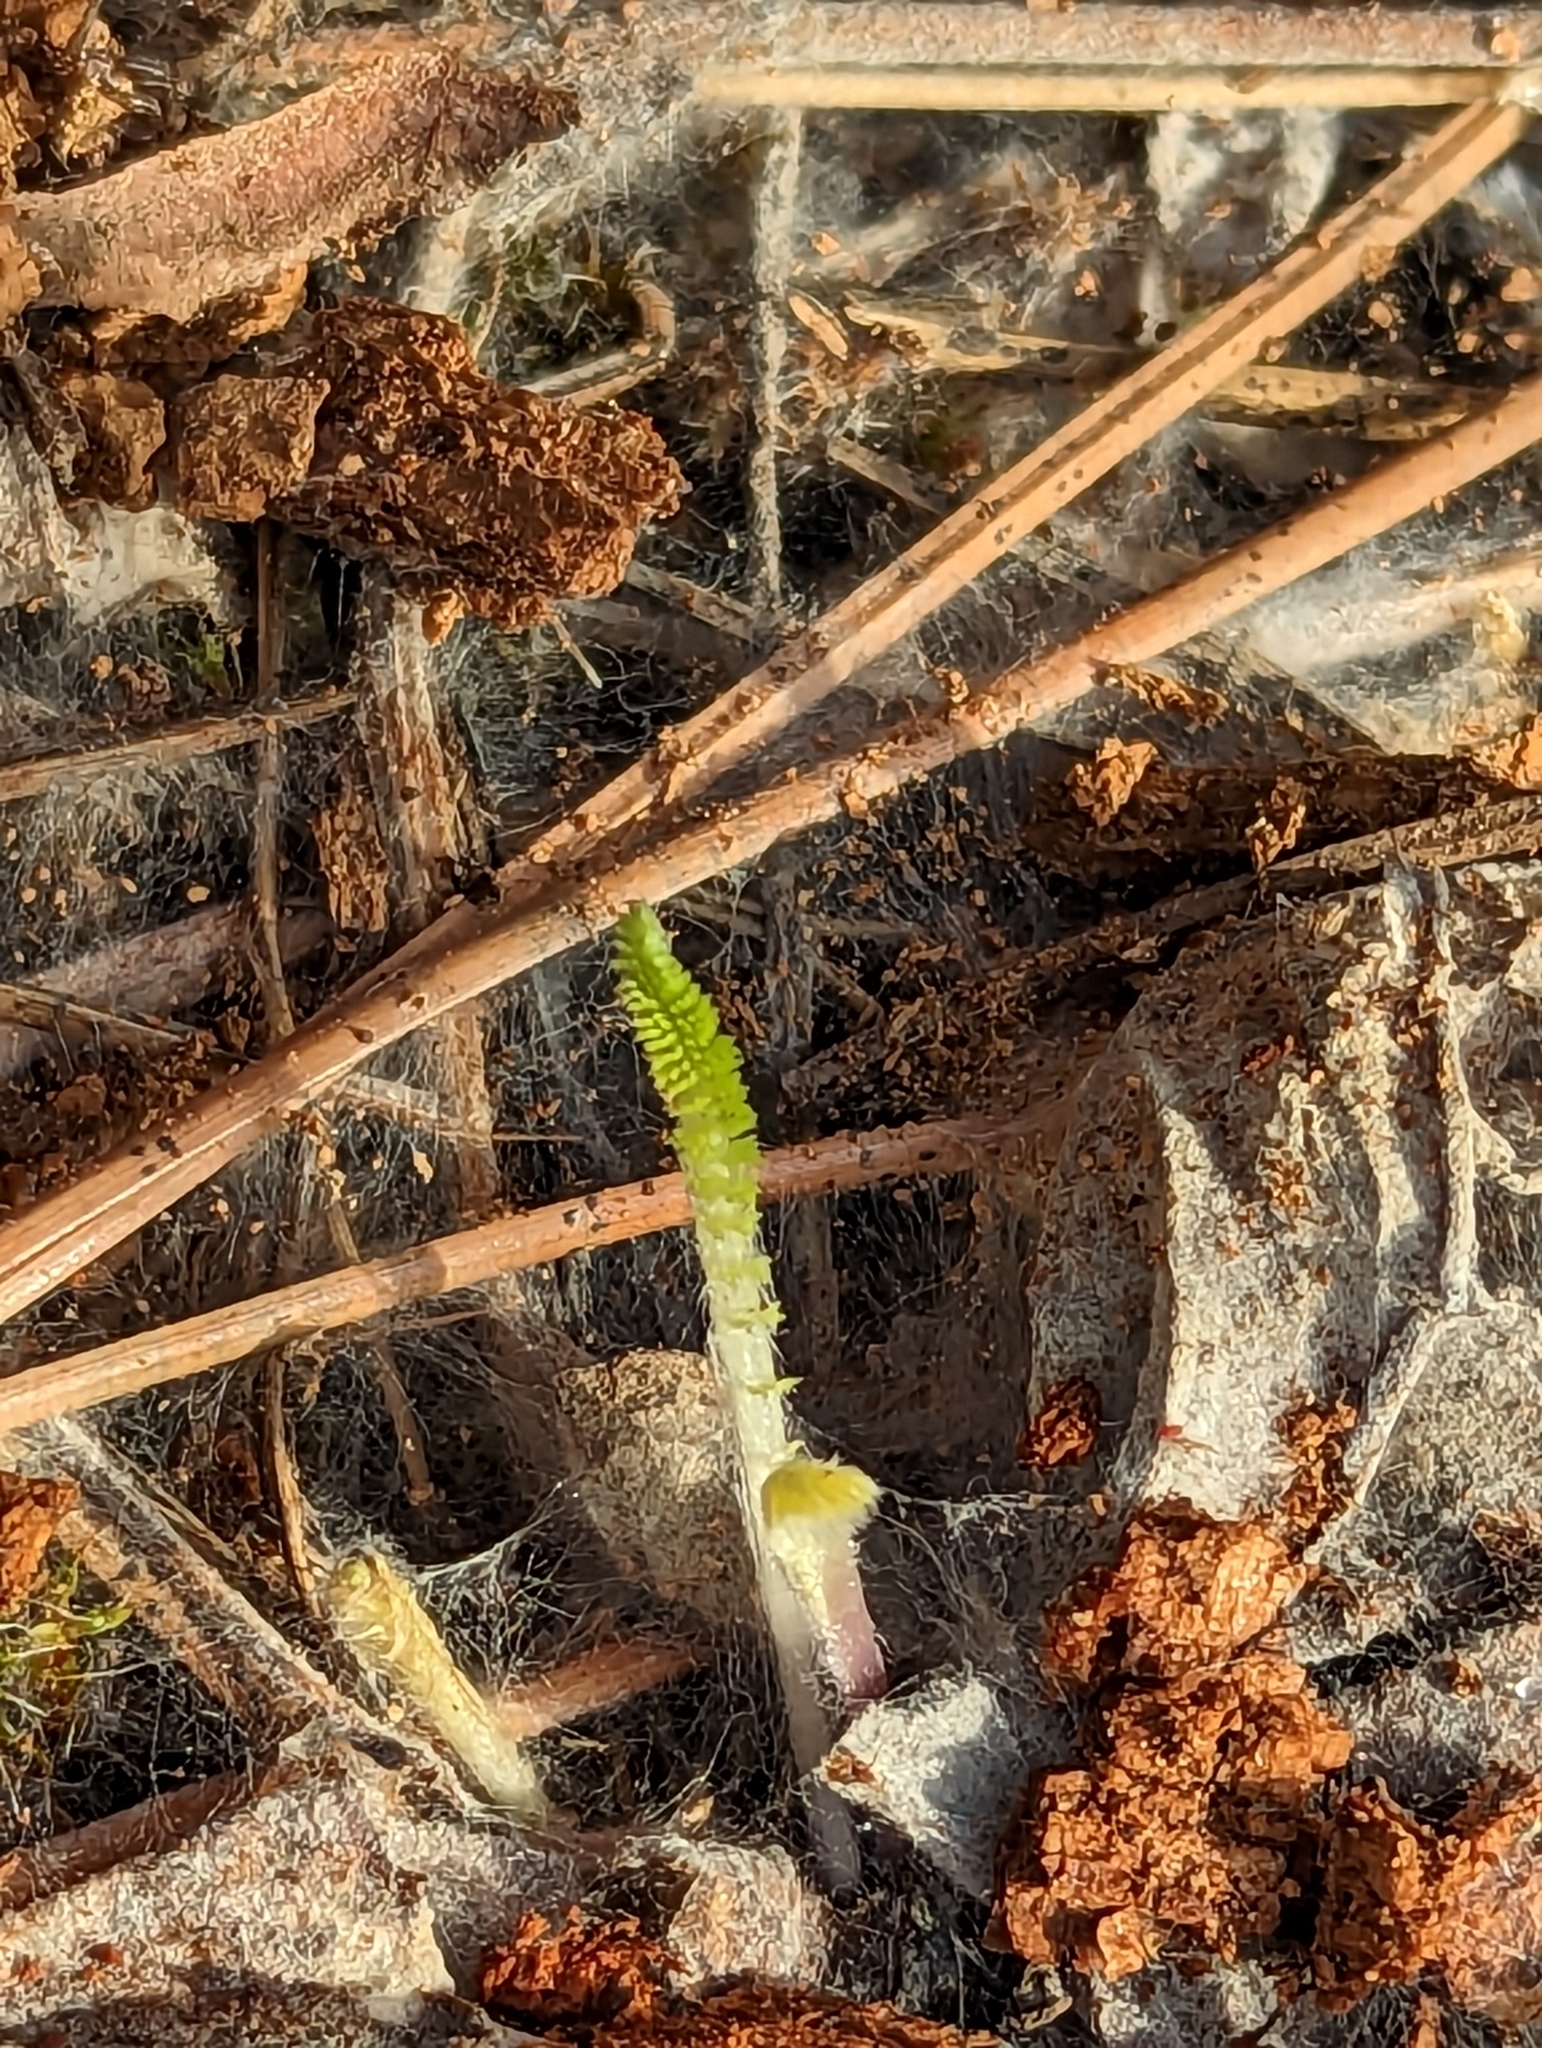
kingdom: Plantae
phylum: Tracheophyta
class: Magnoliopsida
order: Asterales
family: Asteraceae
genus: Achillea
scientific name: Achillea millefolium
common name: Yarrow
